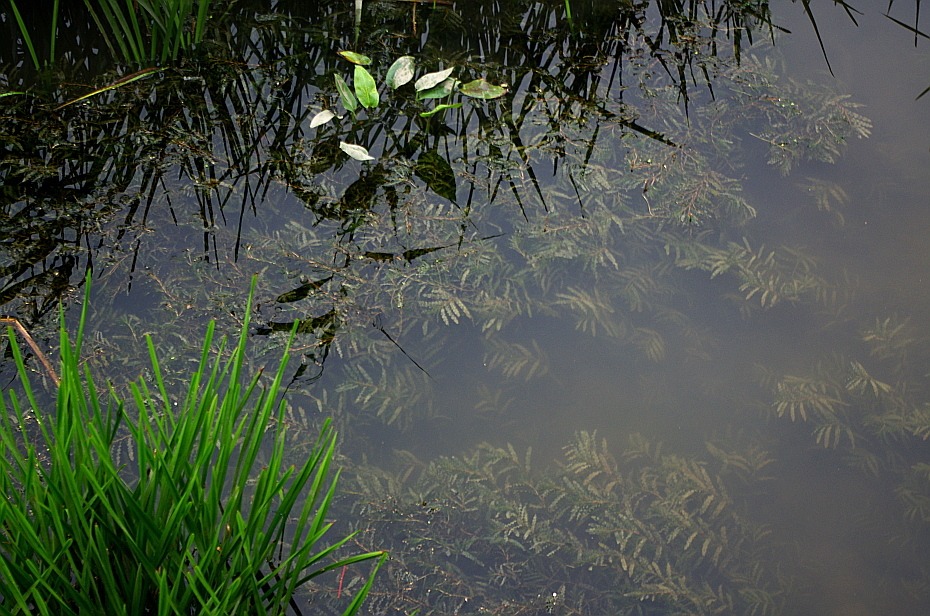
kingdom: Plantae
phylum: Tracheophyta
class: Liliopsida
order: Alismatales
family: Potamogetonaceae
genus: Potamogeton
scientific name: Potamogeton crispus
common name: Curled pondweed
